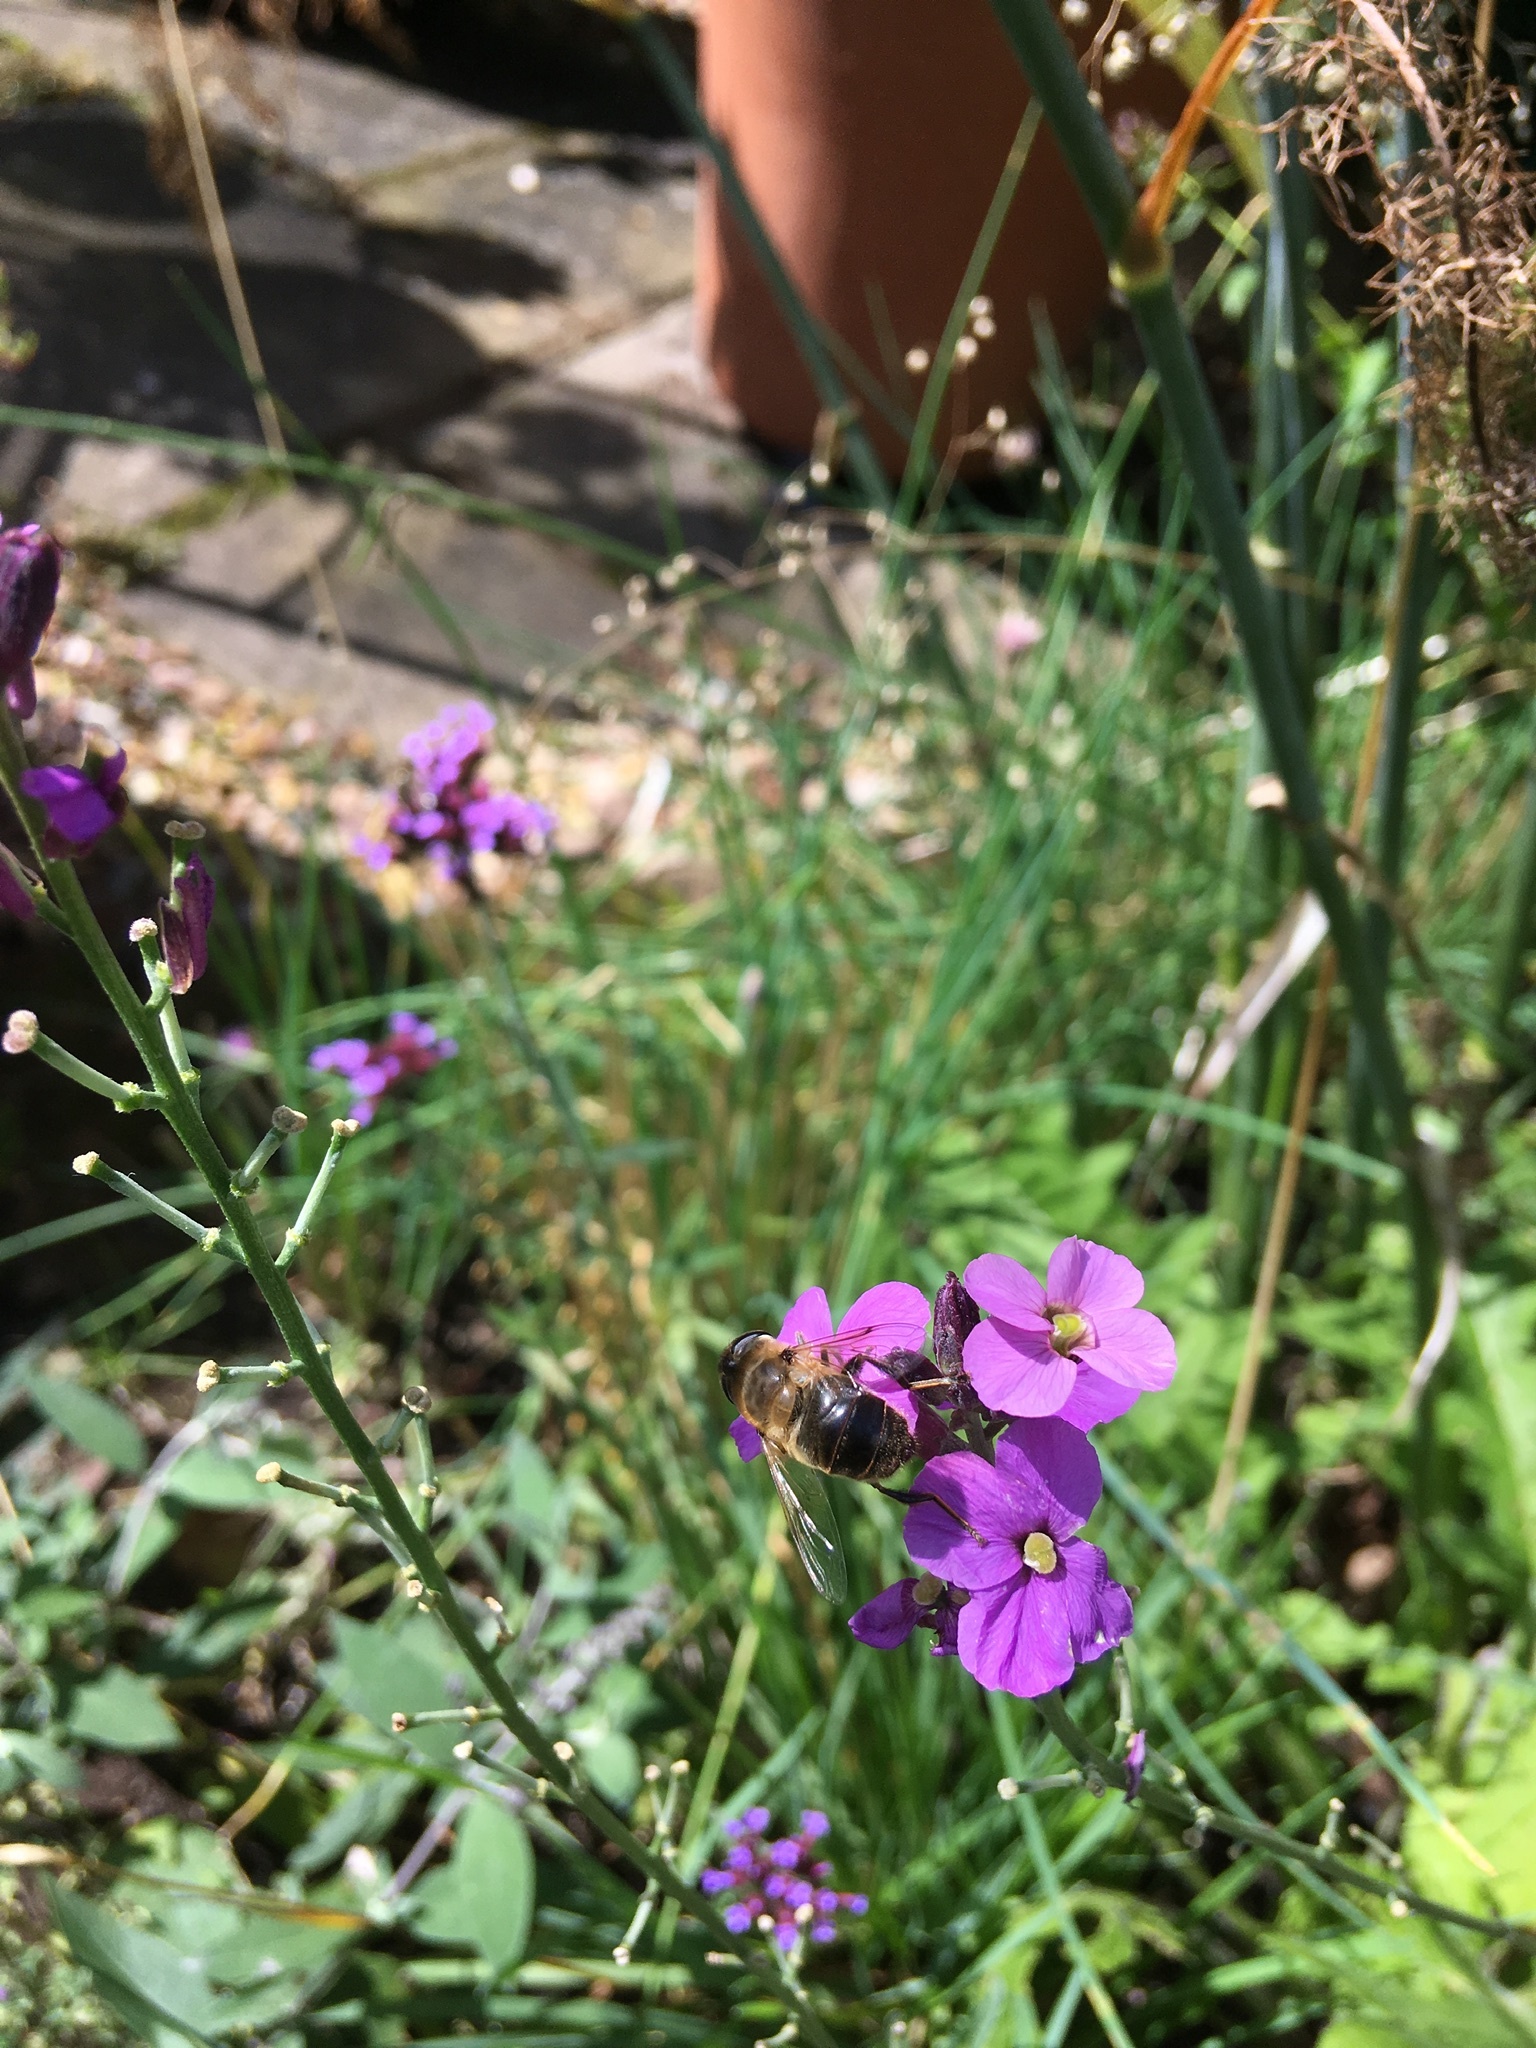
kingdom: Animalia
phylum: Arthropoda
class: Insecta
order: Diptera
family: Syrphidae
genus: Eristalis
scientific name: Eristalis tenax
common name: Drone fly
